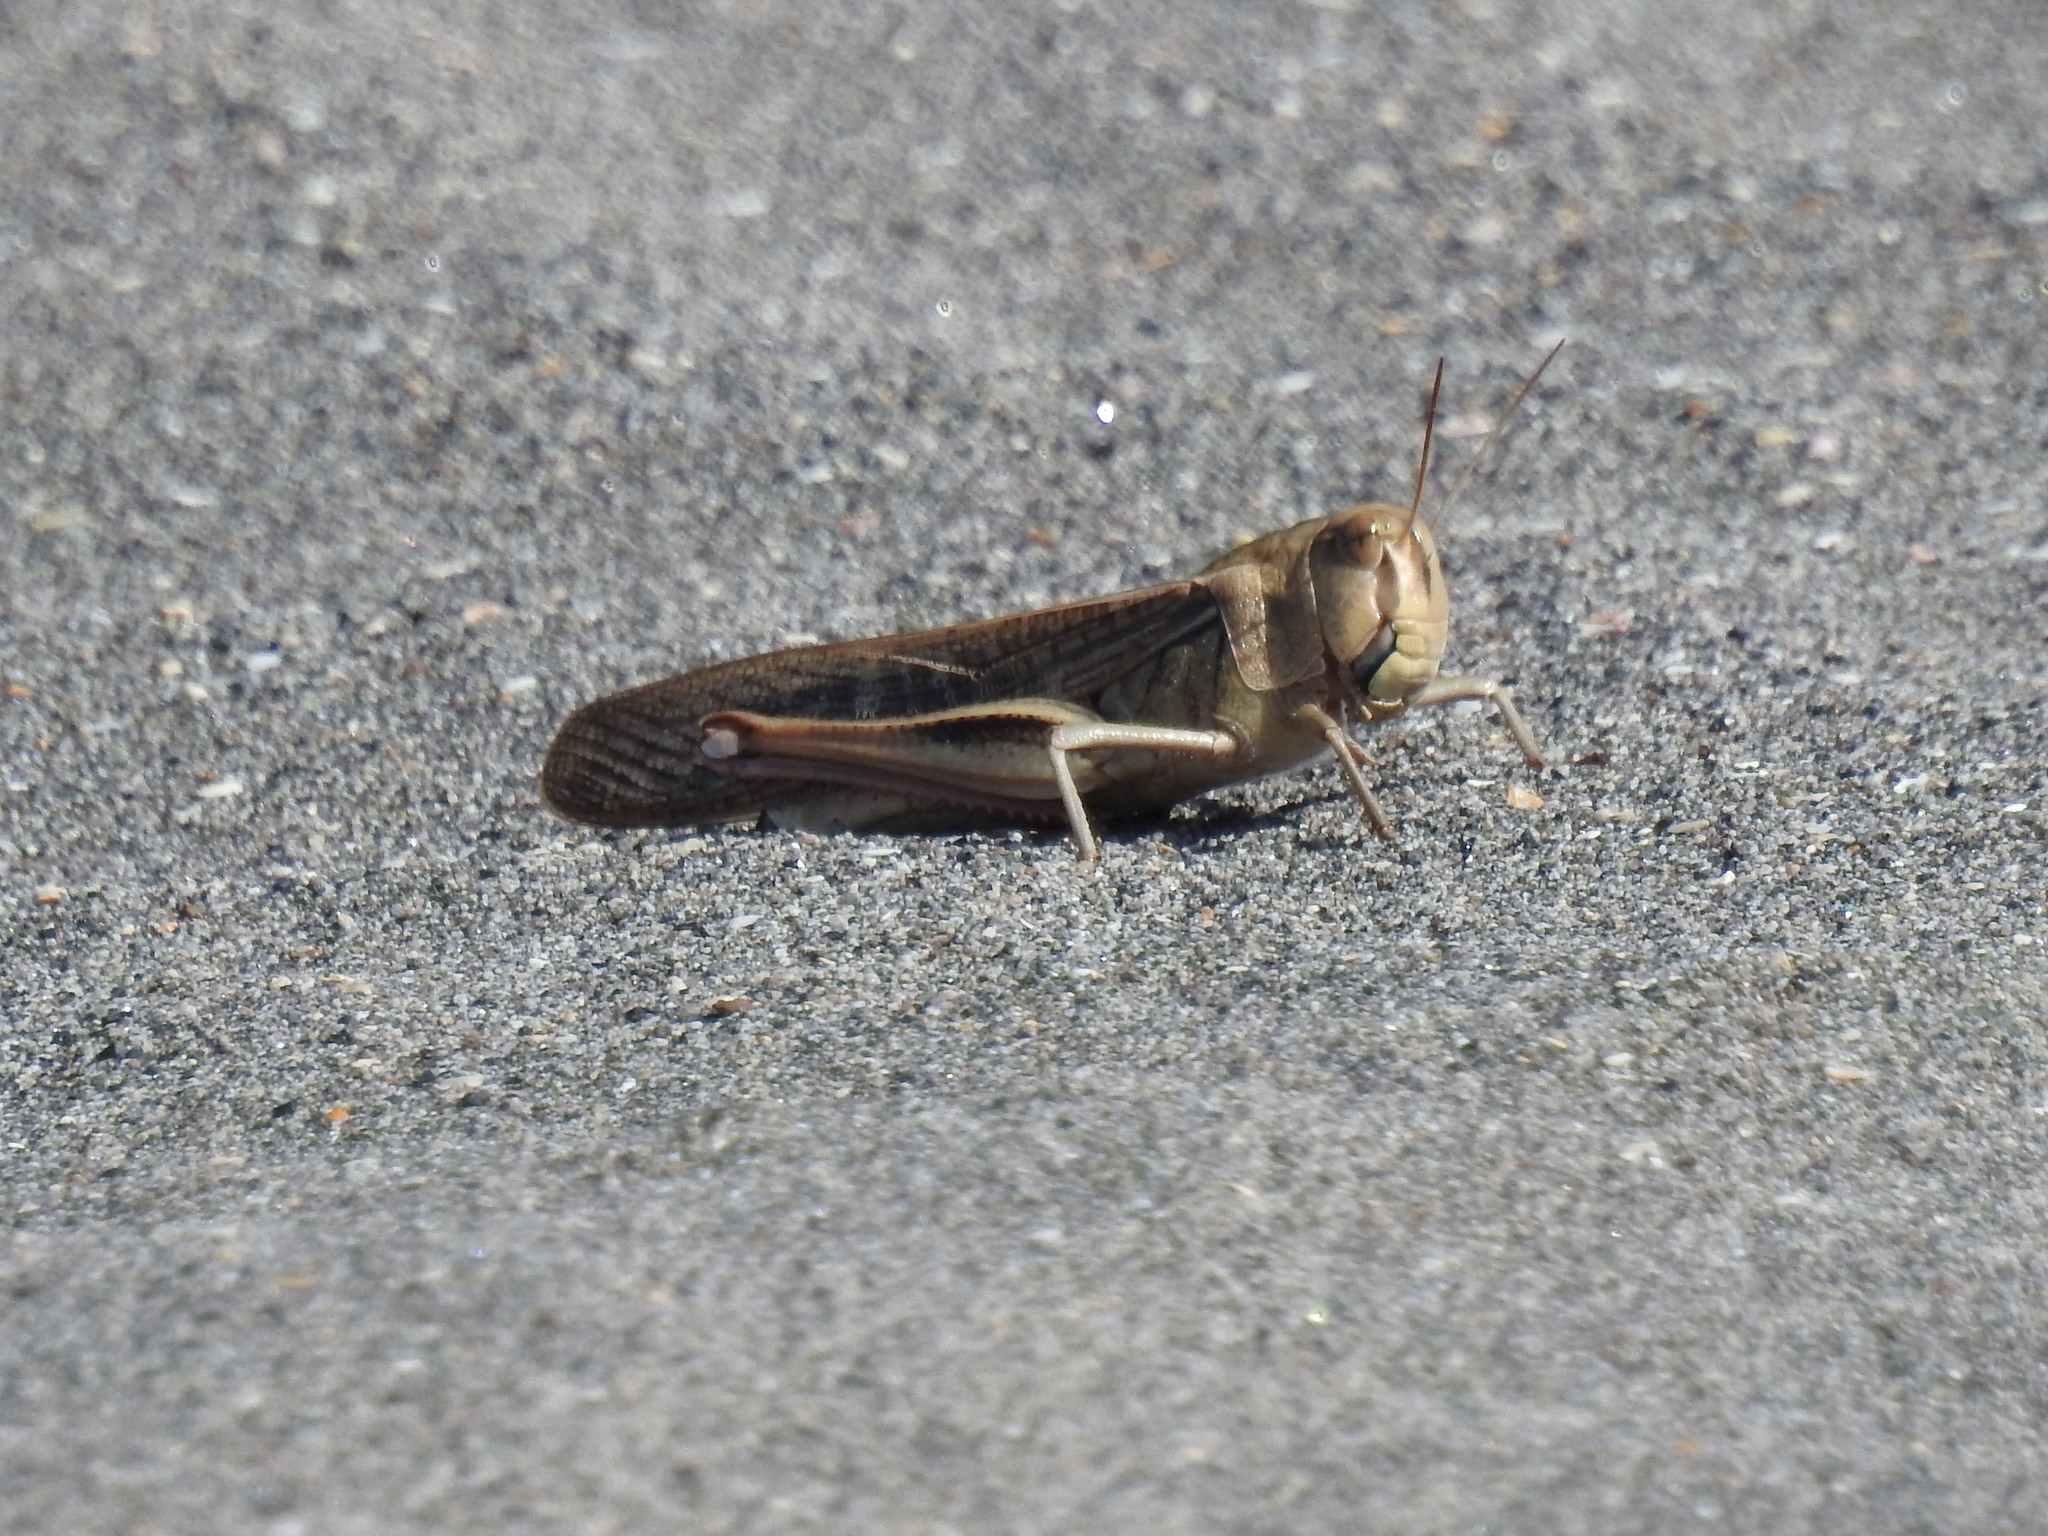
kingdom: Animalia
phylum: Arthropoda
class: Insecta
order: Orthoptera
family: Acrididae
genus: Locusta
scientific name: Locusta migratoria
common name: Migratory locust
